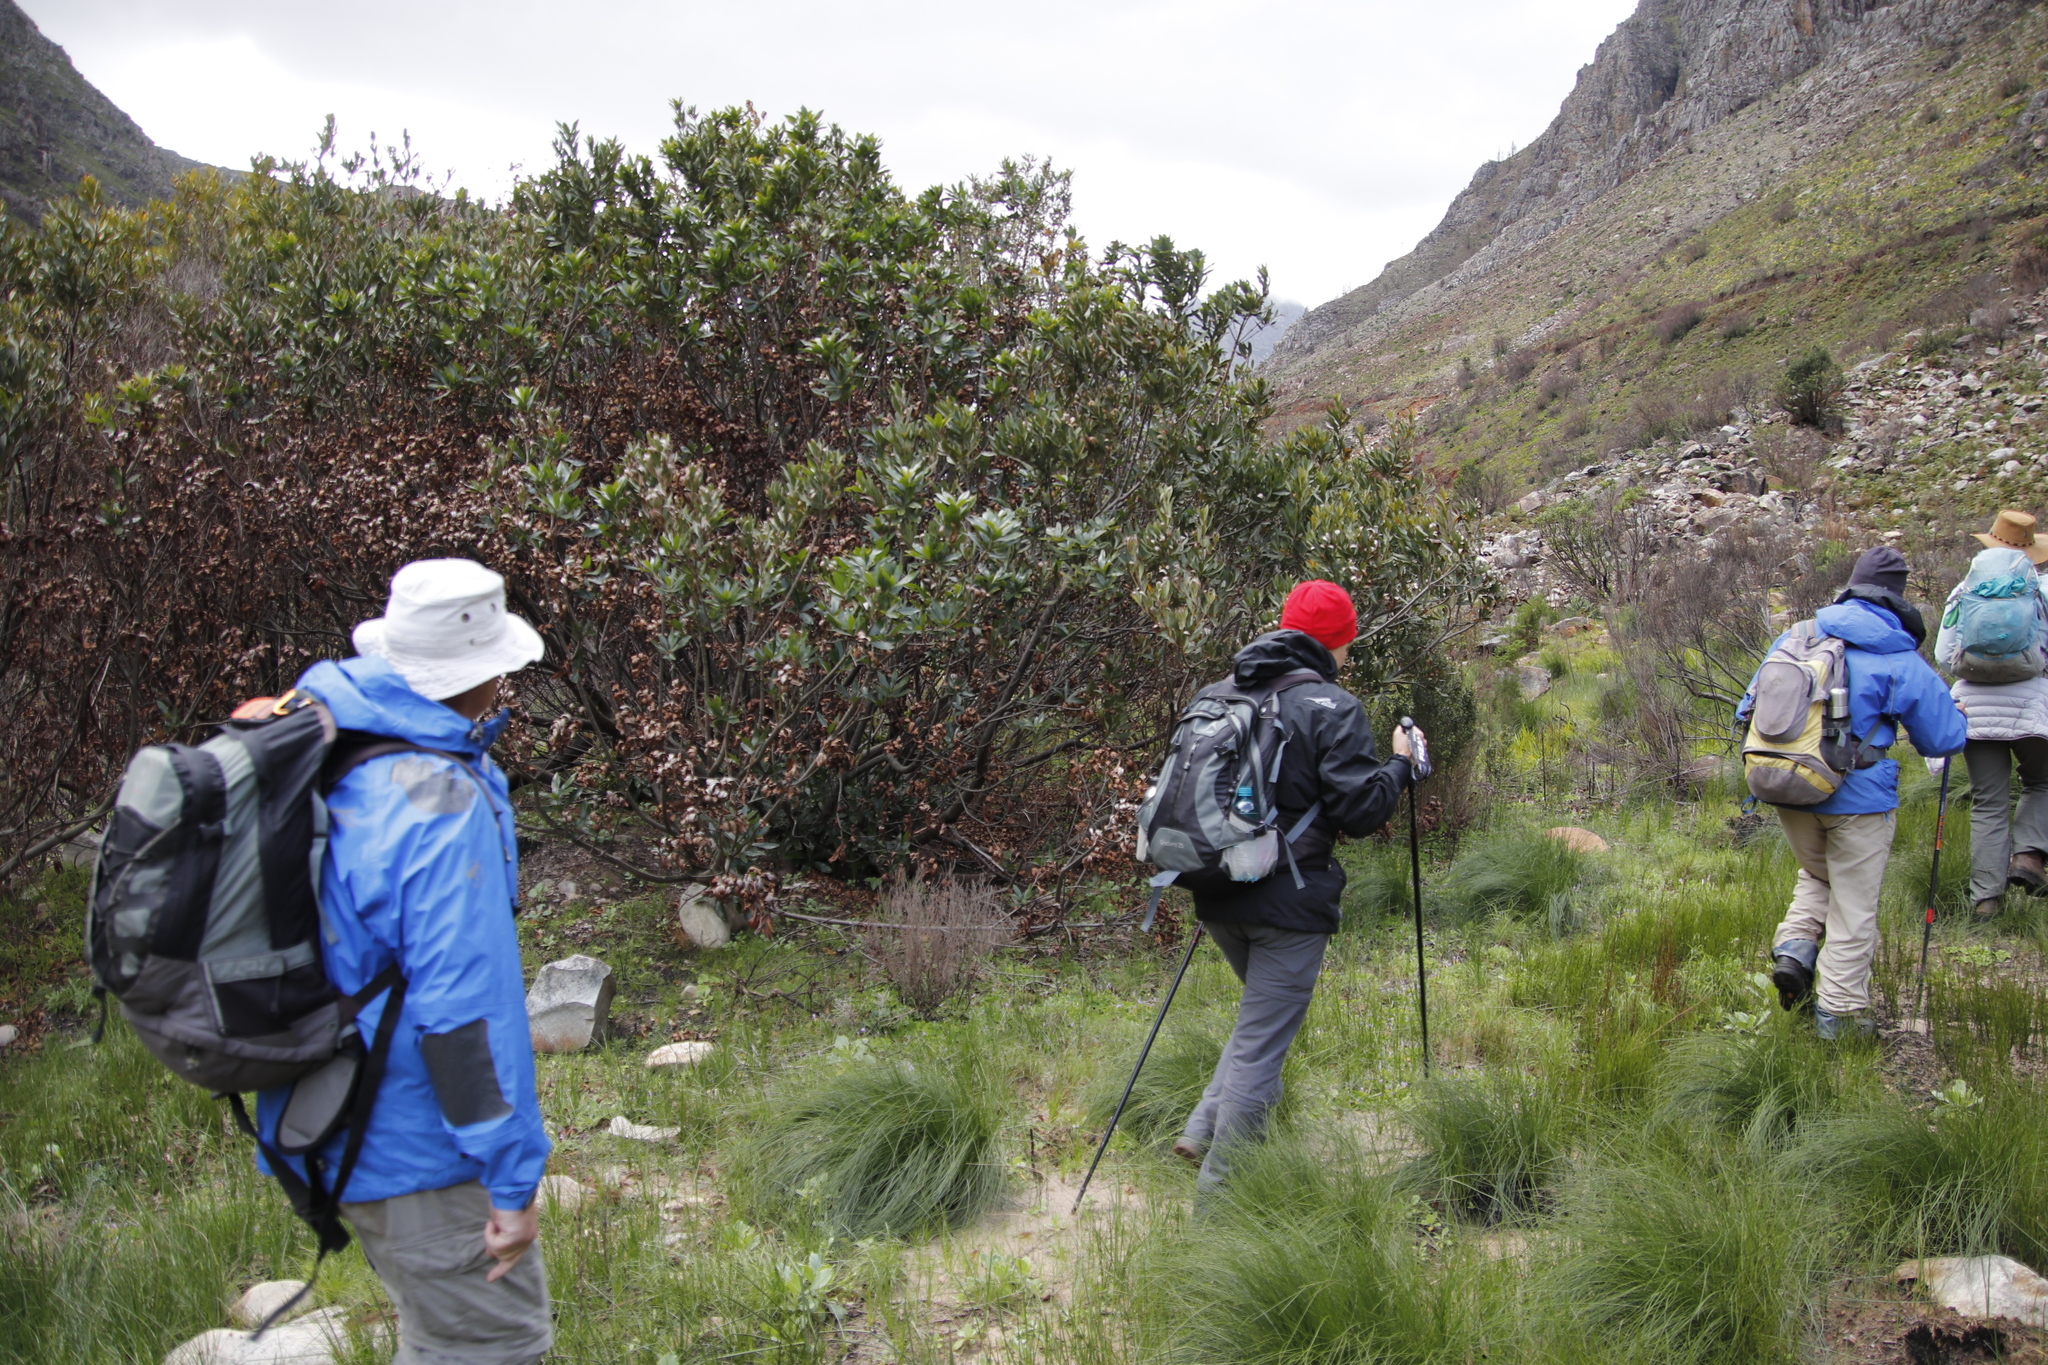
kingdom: Plantae
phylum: Tracheophyta
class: Magnoliopsida
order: Proteales
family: Proteaceae
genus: Brabejum
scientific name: Brabejum stellatifolium
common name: Wild almond
